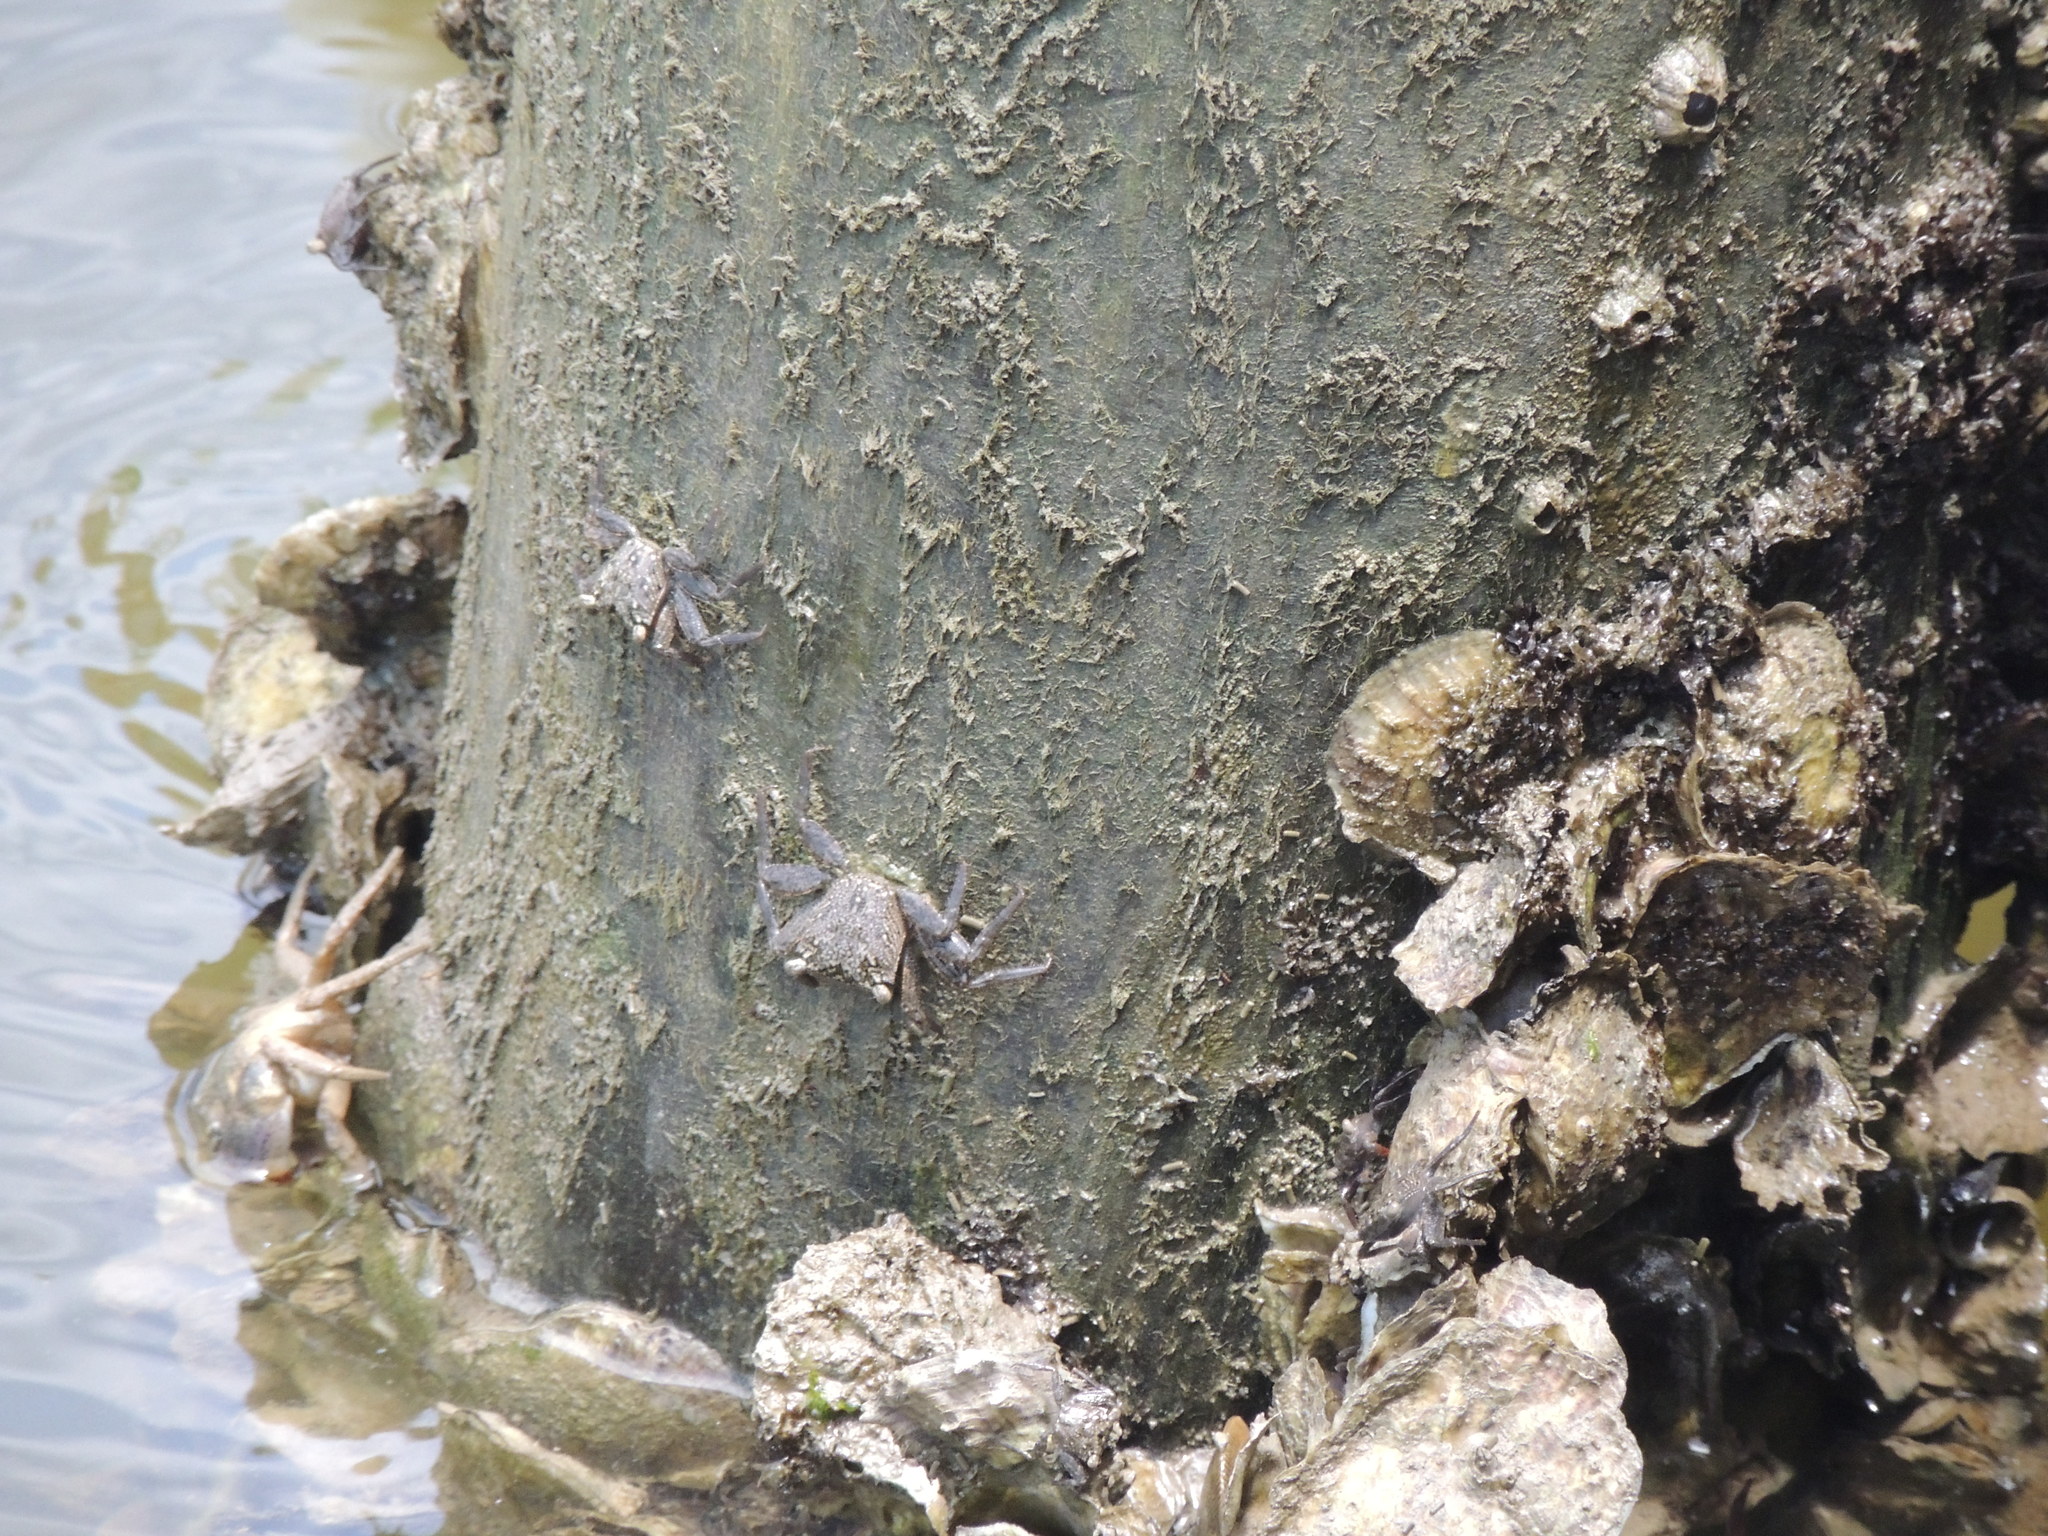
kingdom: Animalia
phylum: Arthropoda
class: Malacostraca
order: Decapoda
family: Sesarmidae
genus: Aratus
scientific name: Aratus pisonii
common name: Mangrove crab
